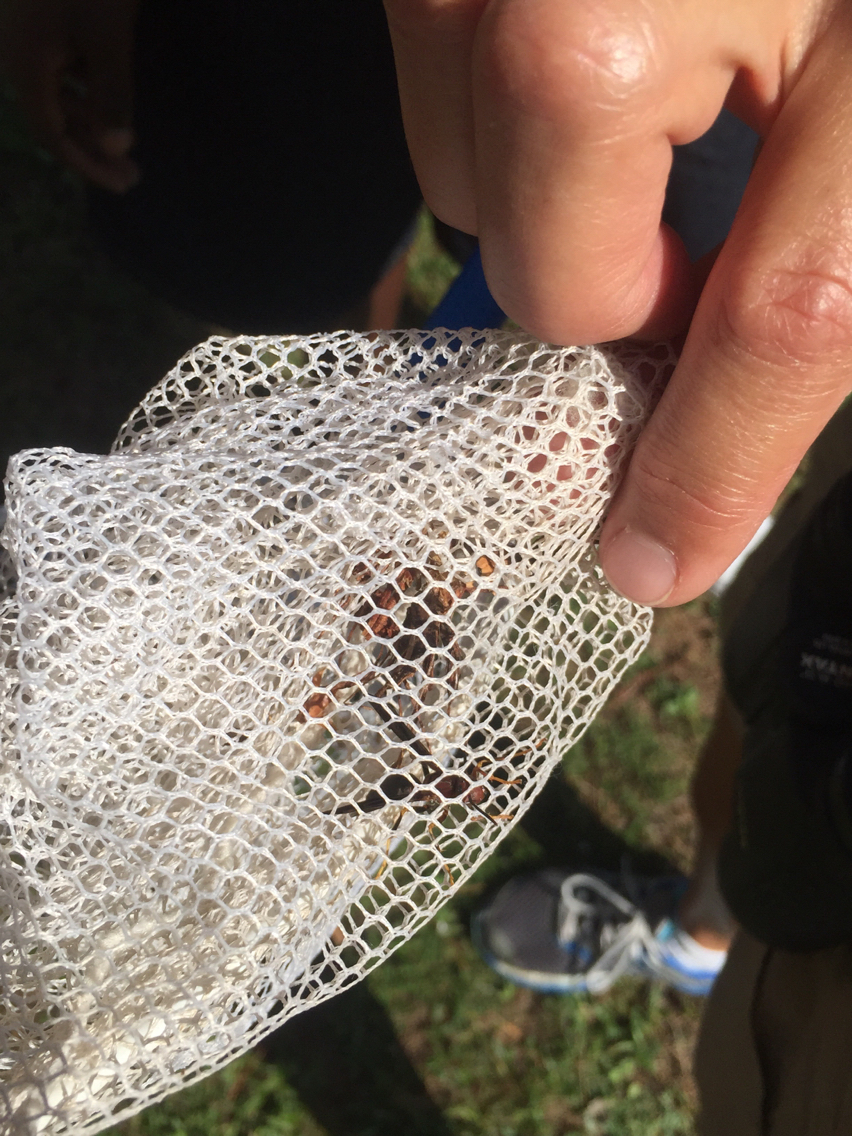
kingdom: Animalia
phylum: Arthropoda
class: Insecta
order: Hymenoptera
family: Eumenidae
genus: Polistes
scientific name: Polistes metricus
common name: Metric paper wasp
